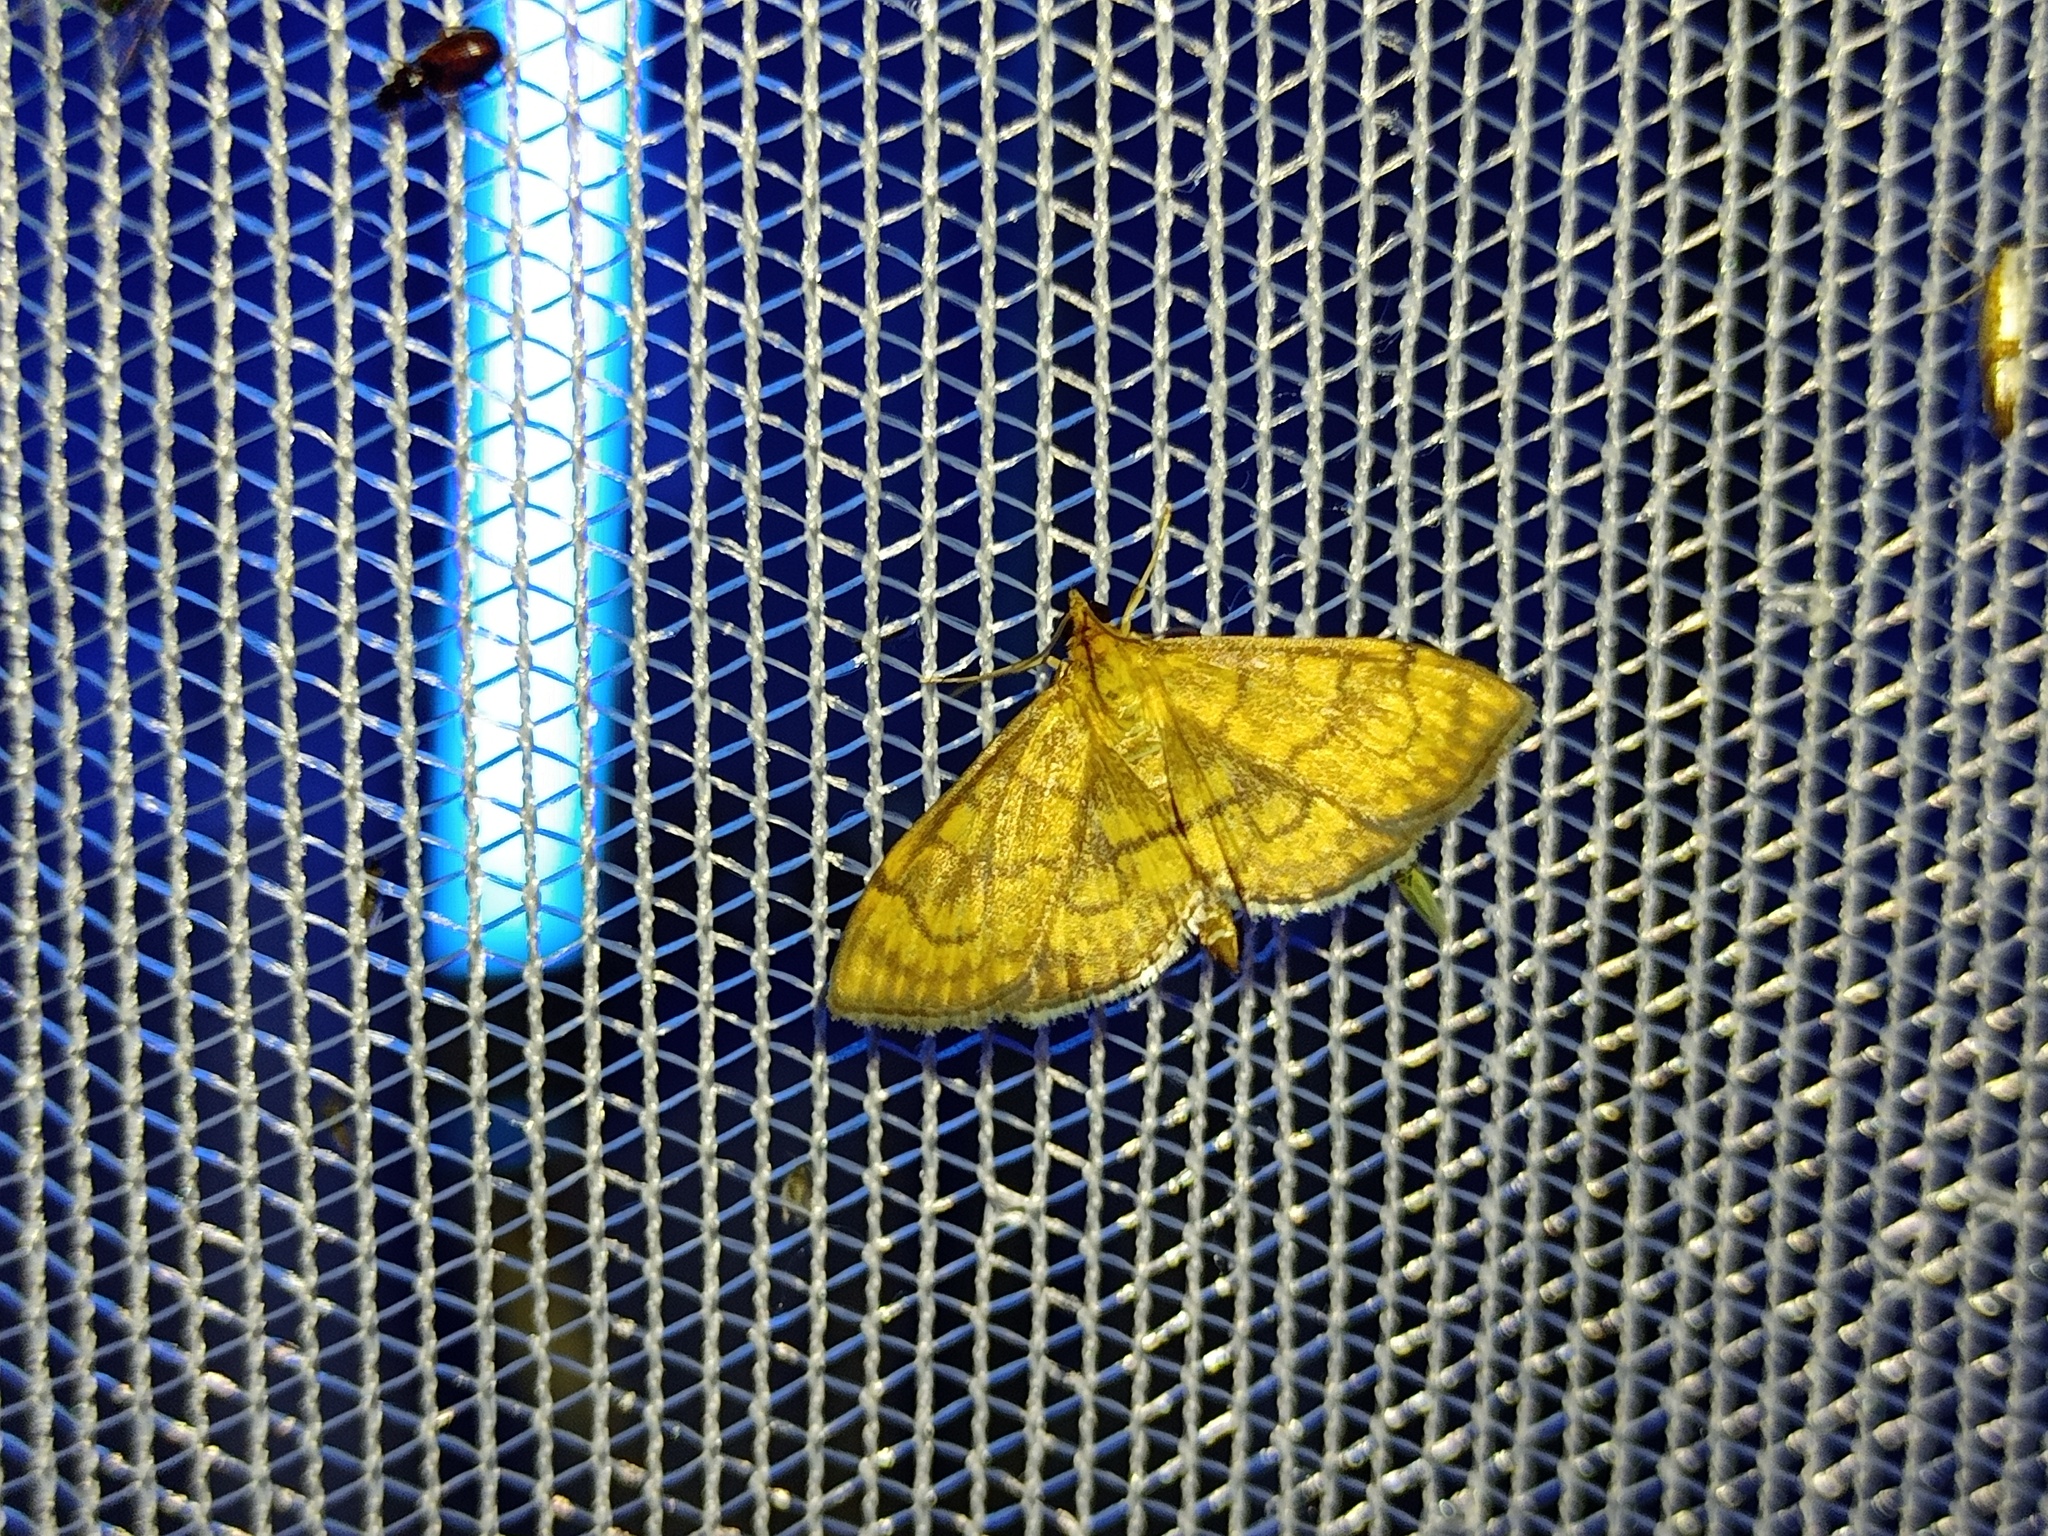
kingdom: Animalia
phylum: Arthropoda
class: Insecta
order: Lepidoptera
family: Crambidae
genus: Anania
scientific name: Anania verbascalis
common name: Golden pearl
